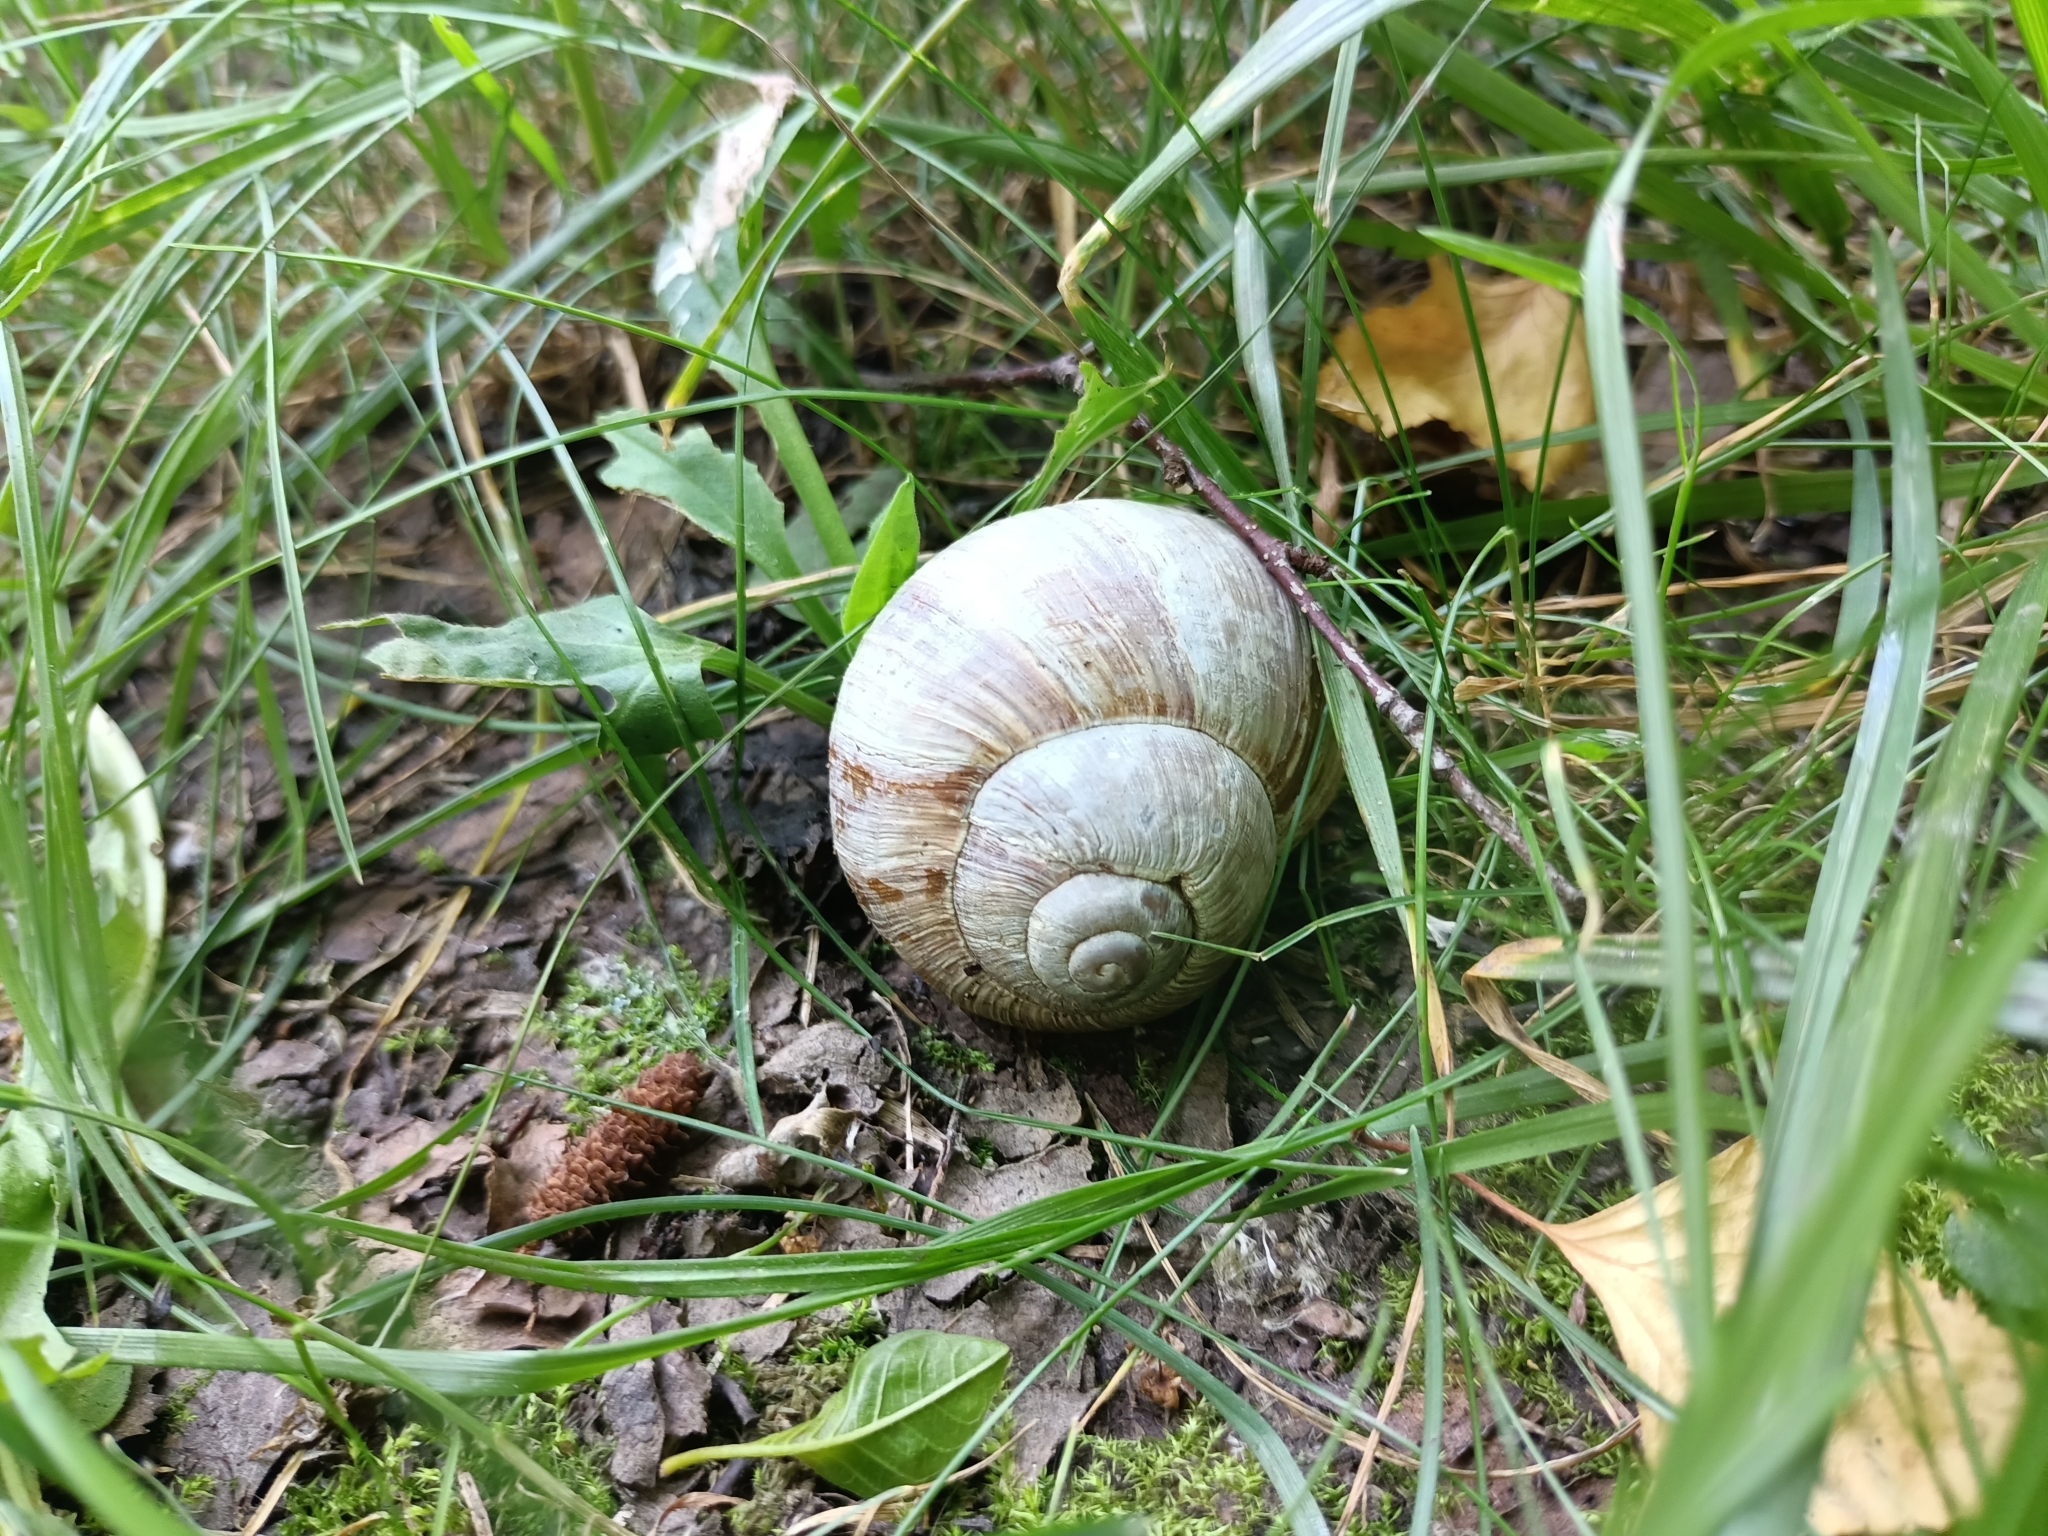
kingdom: Animalia
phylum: Mollusca
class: Gastropoda
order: Stylommatophora
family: Helicidae
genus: Helix
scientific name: Helix pomatia
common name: Roman snail
